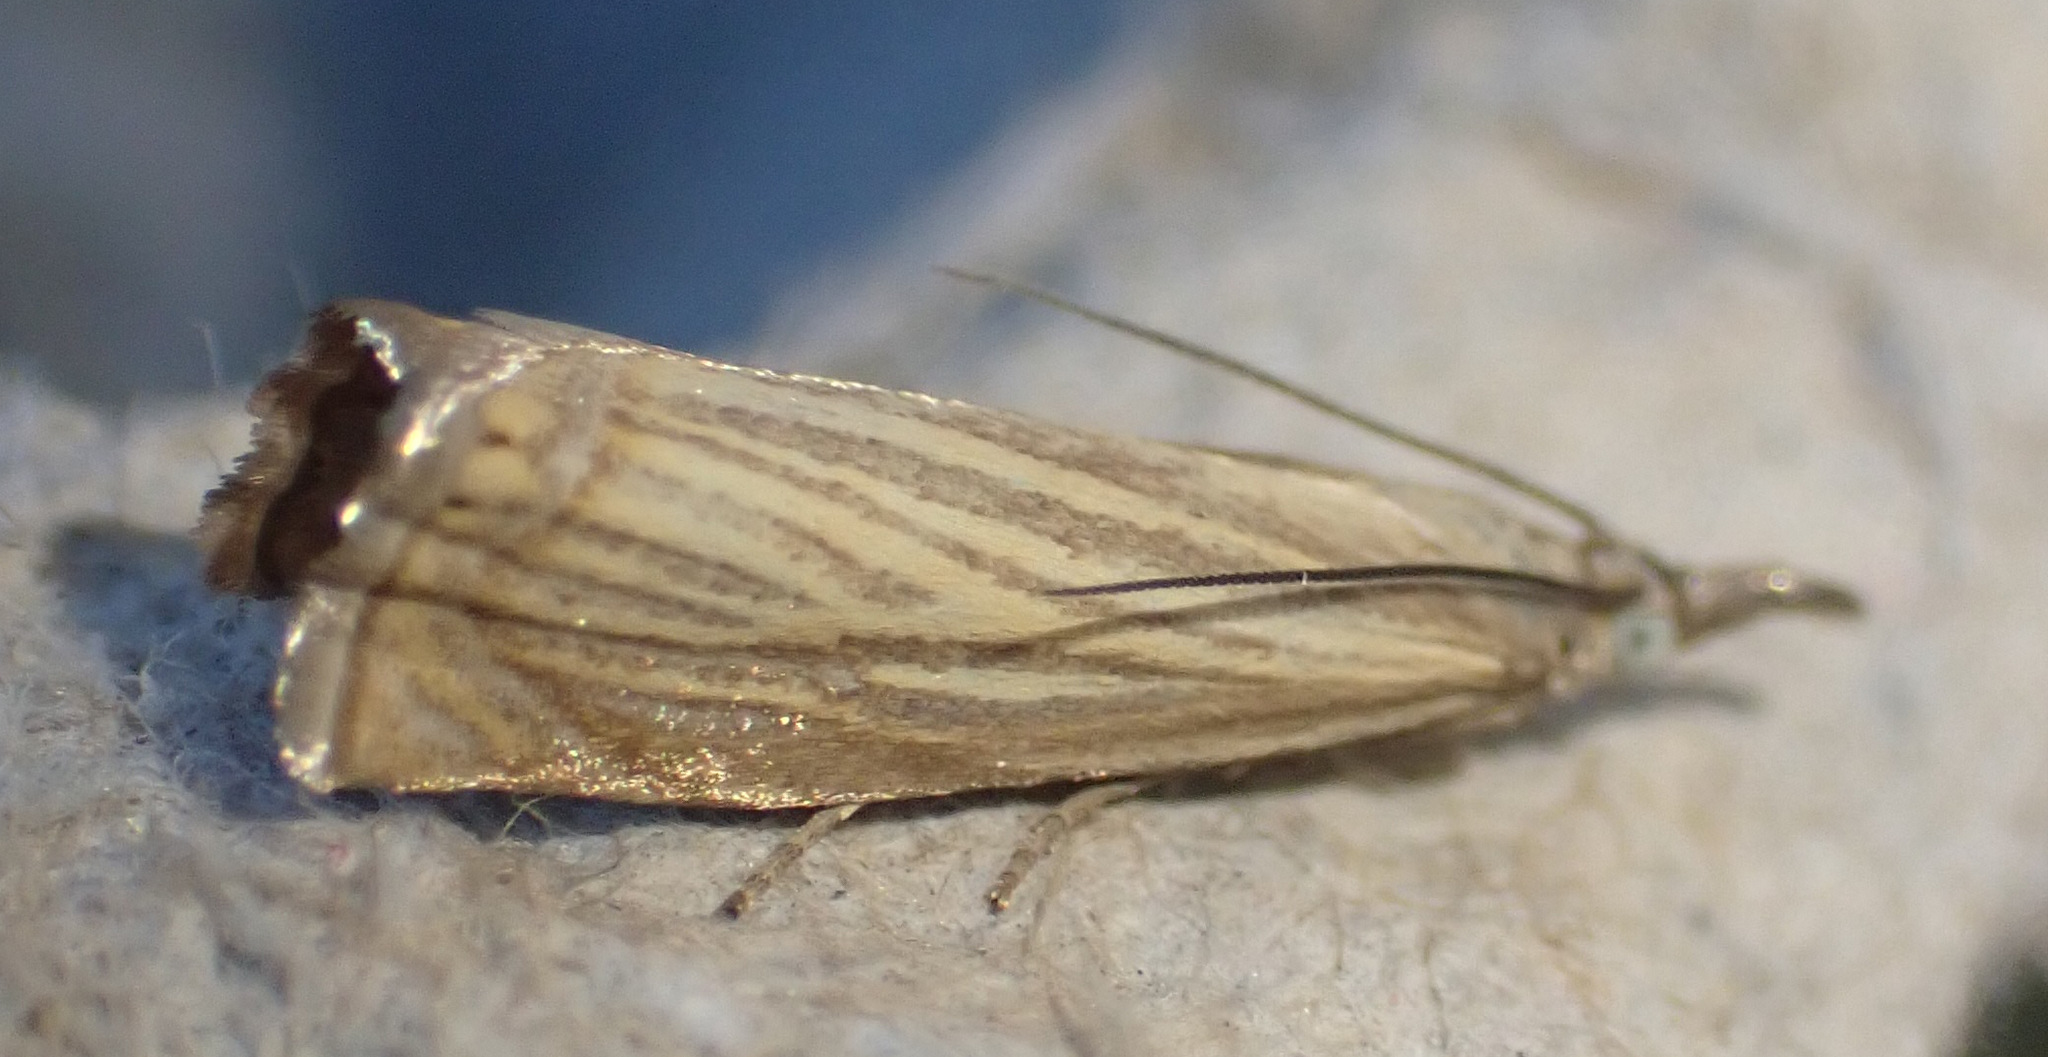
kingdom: Animalia
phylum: Arthropoda
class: Insecta
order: Lepidoptera
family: Crambidae
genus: Chrysoteuchia
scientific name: Chrysoteuchia culmella
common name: Garden grass-veneer
